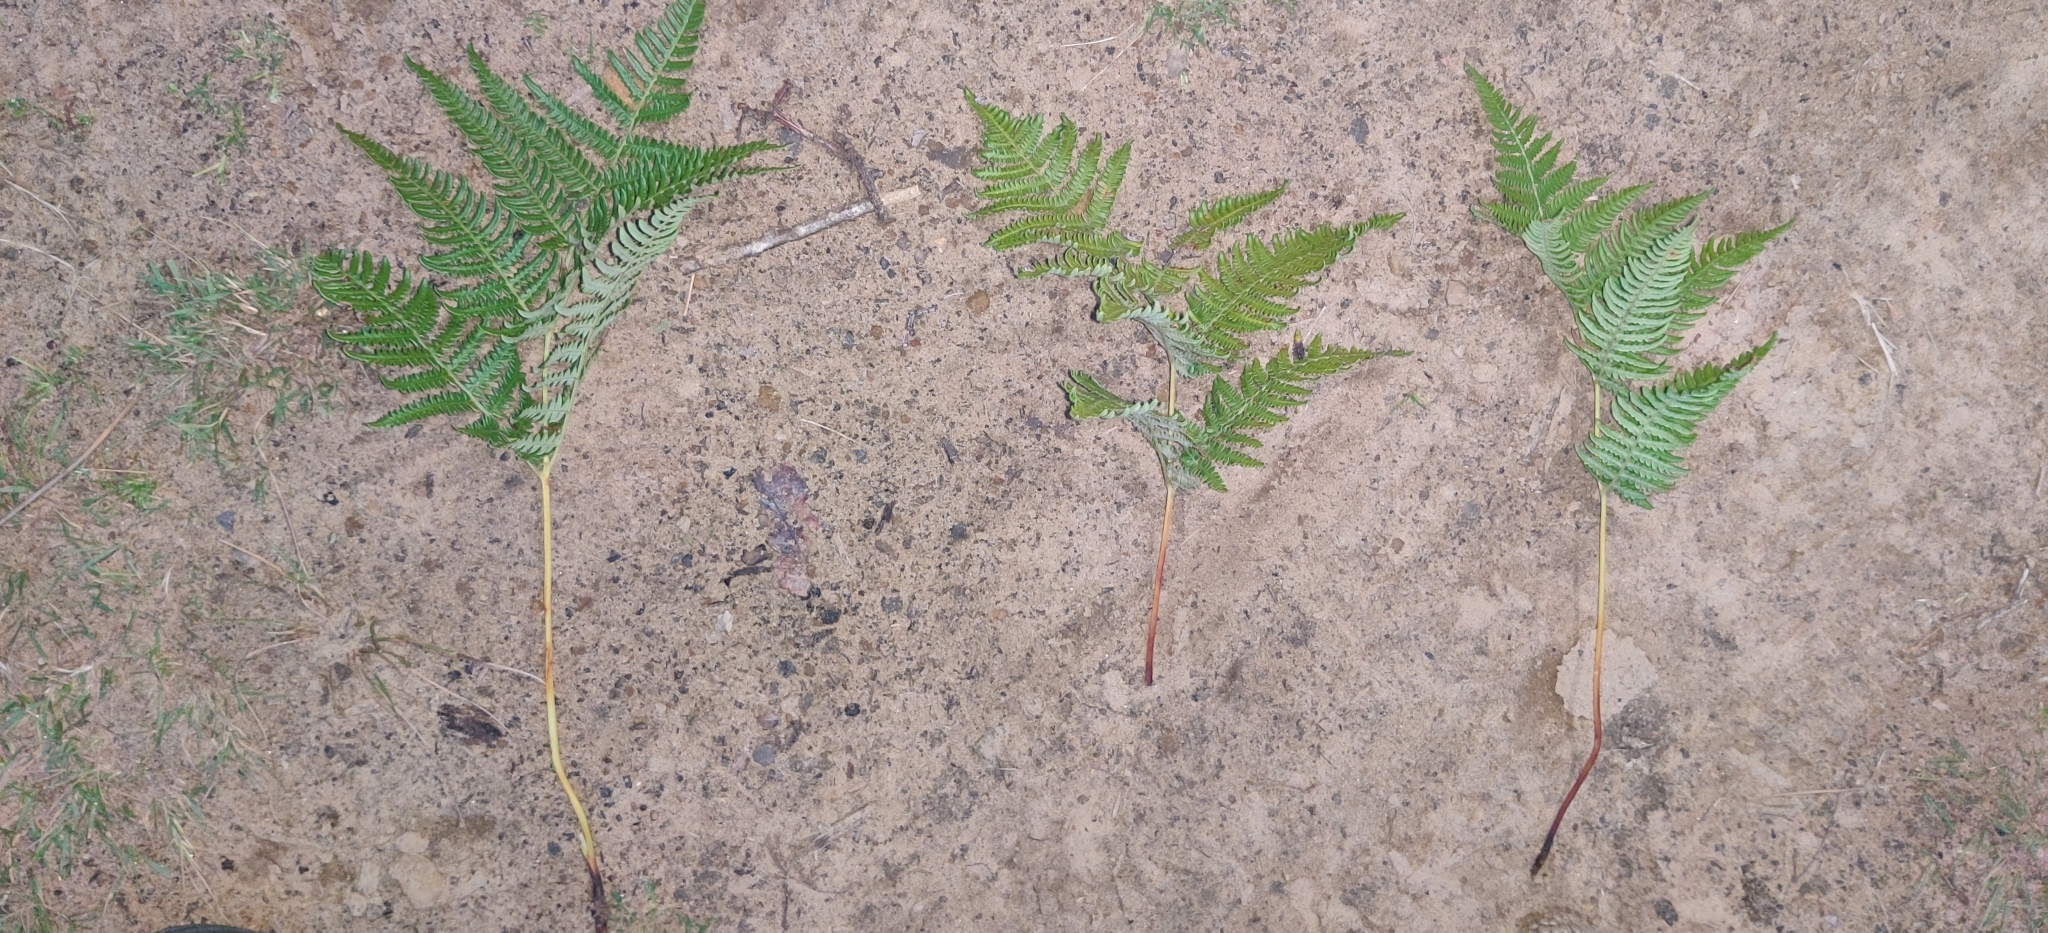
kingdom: Plantae
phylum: Tracheophyta
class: Polypodiopsida
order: Polypodiales
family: Dennstaedtiaceae
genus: Pteridium
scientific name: Pteridium aquilinum
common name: Bracken
